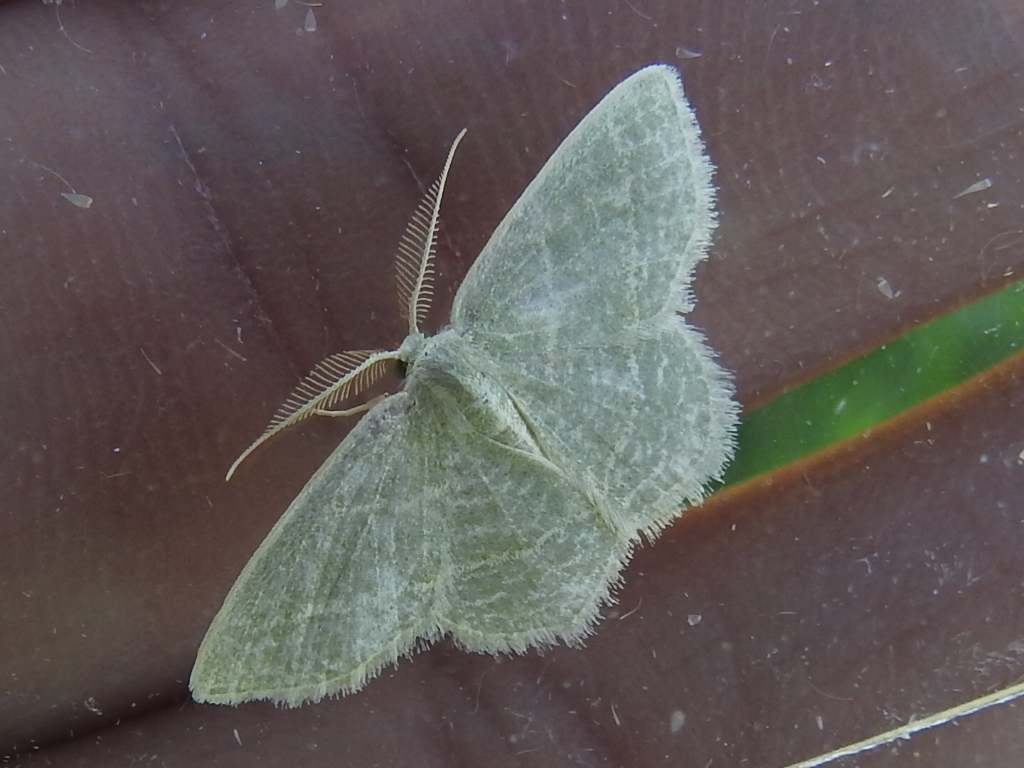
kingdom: Animalia
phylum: Arthropoda
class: Insecta
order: Lepidoptera
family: Geometridae
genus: Chlorochlamys
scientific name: Chlorochlamys chloroleucaria
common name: Blackberry looper
